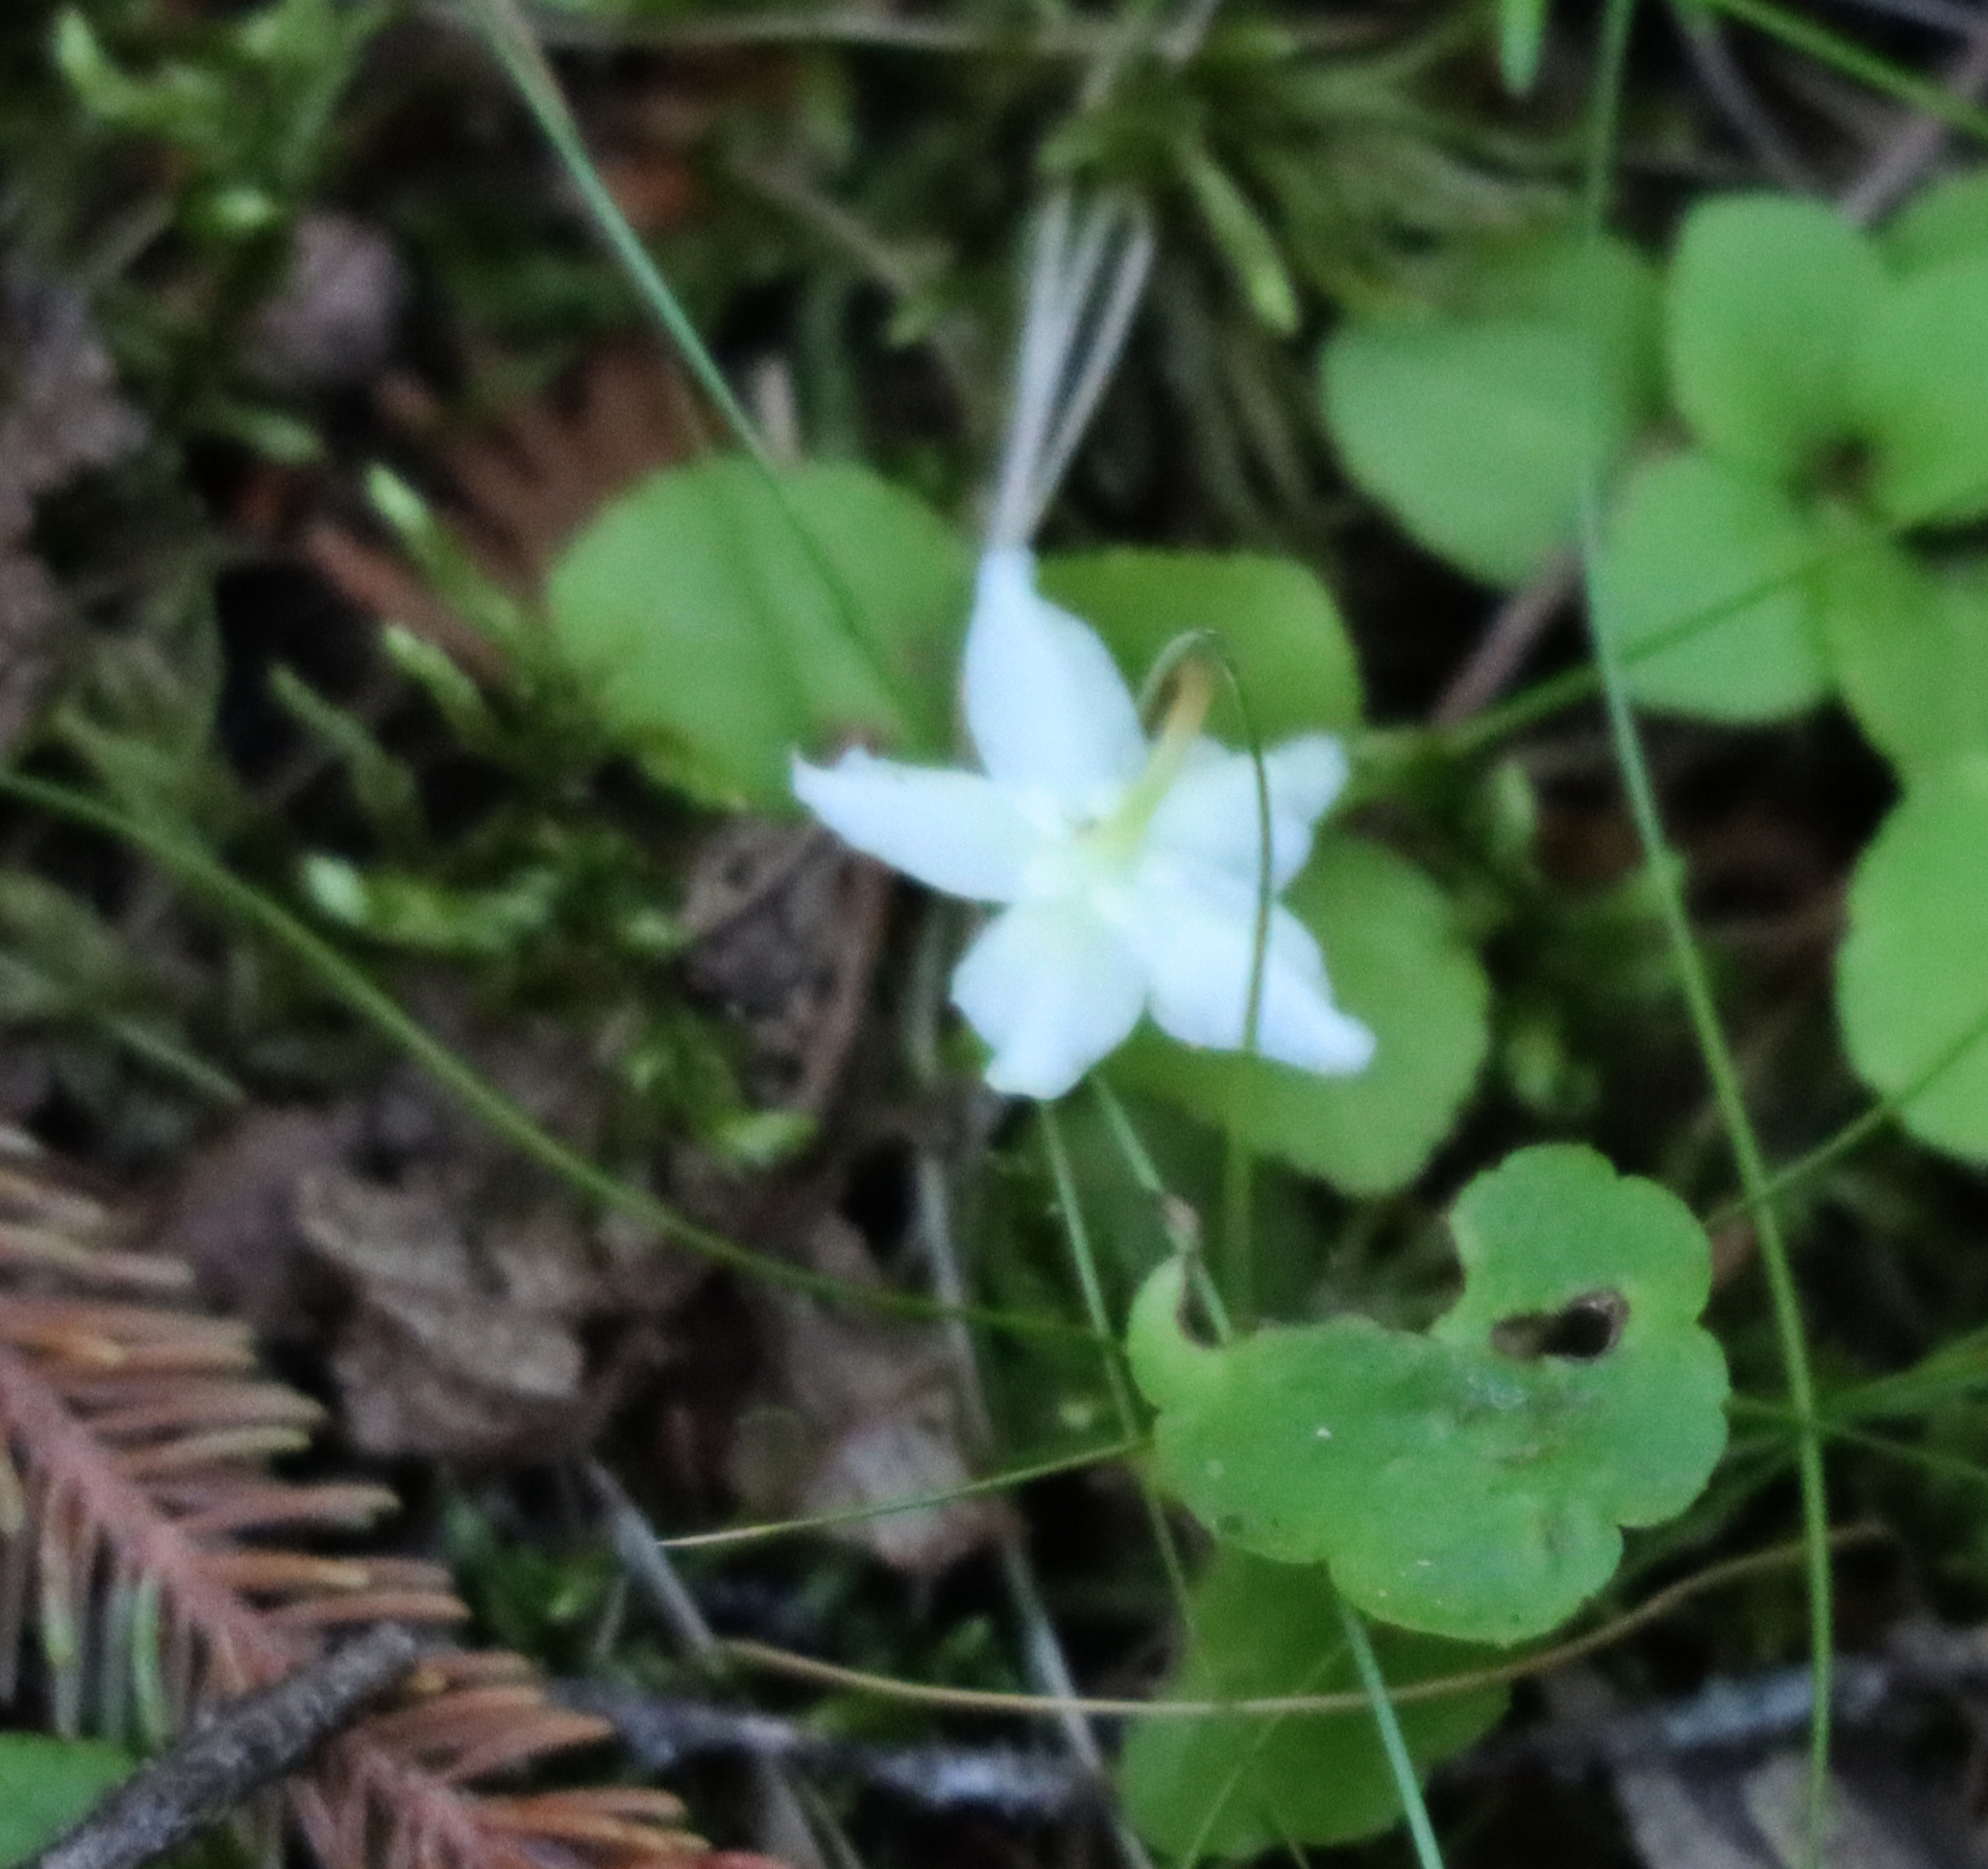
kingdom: Plantae
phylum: Tracheophyta
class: Magnoliopsida
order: Ericales
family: Ericaceae
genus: Moneses
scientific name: Moneses uniflora
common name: One-flowered wintergreen
